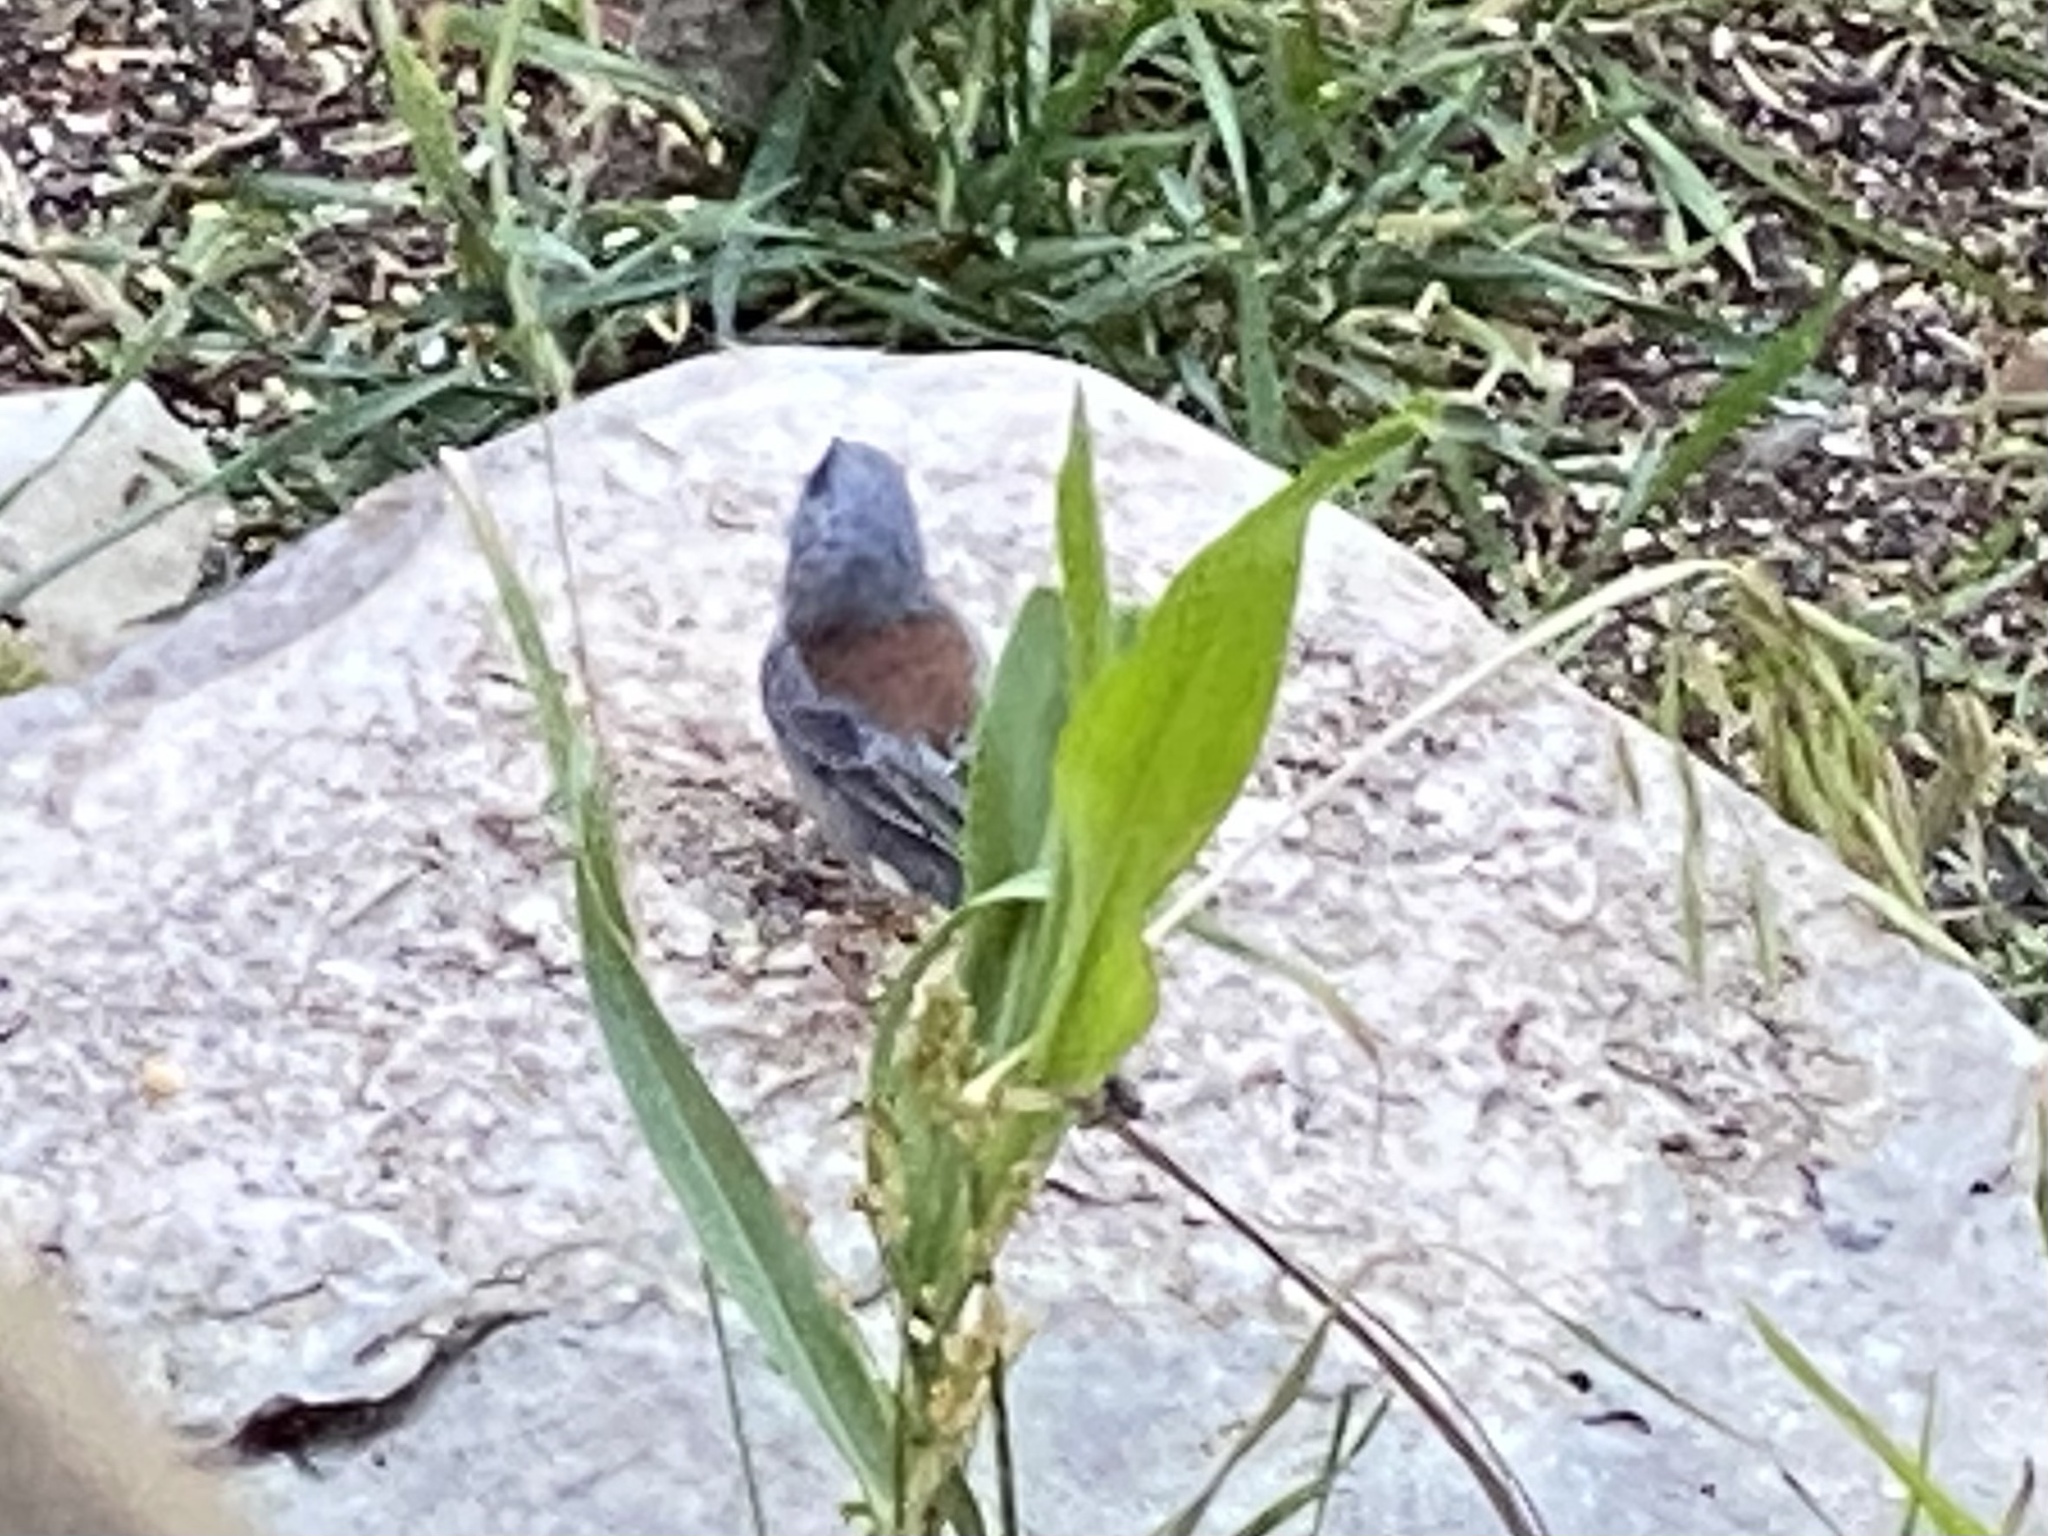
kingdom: Animalia
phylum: Chordata
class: Aves
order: Passeriformes
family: Passerellidae
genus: Junco
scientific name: Junco hyemalis
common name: Dark-eyed junco
